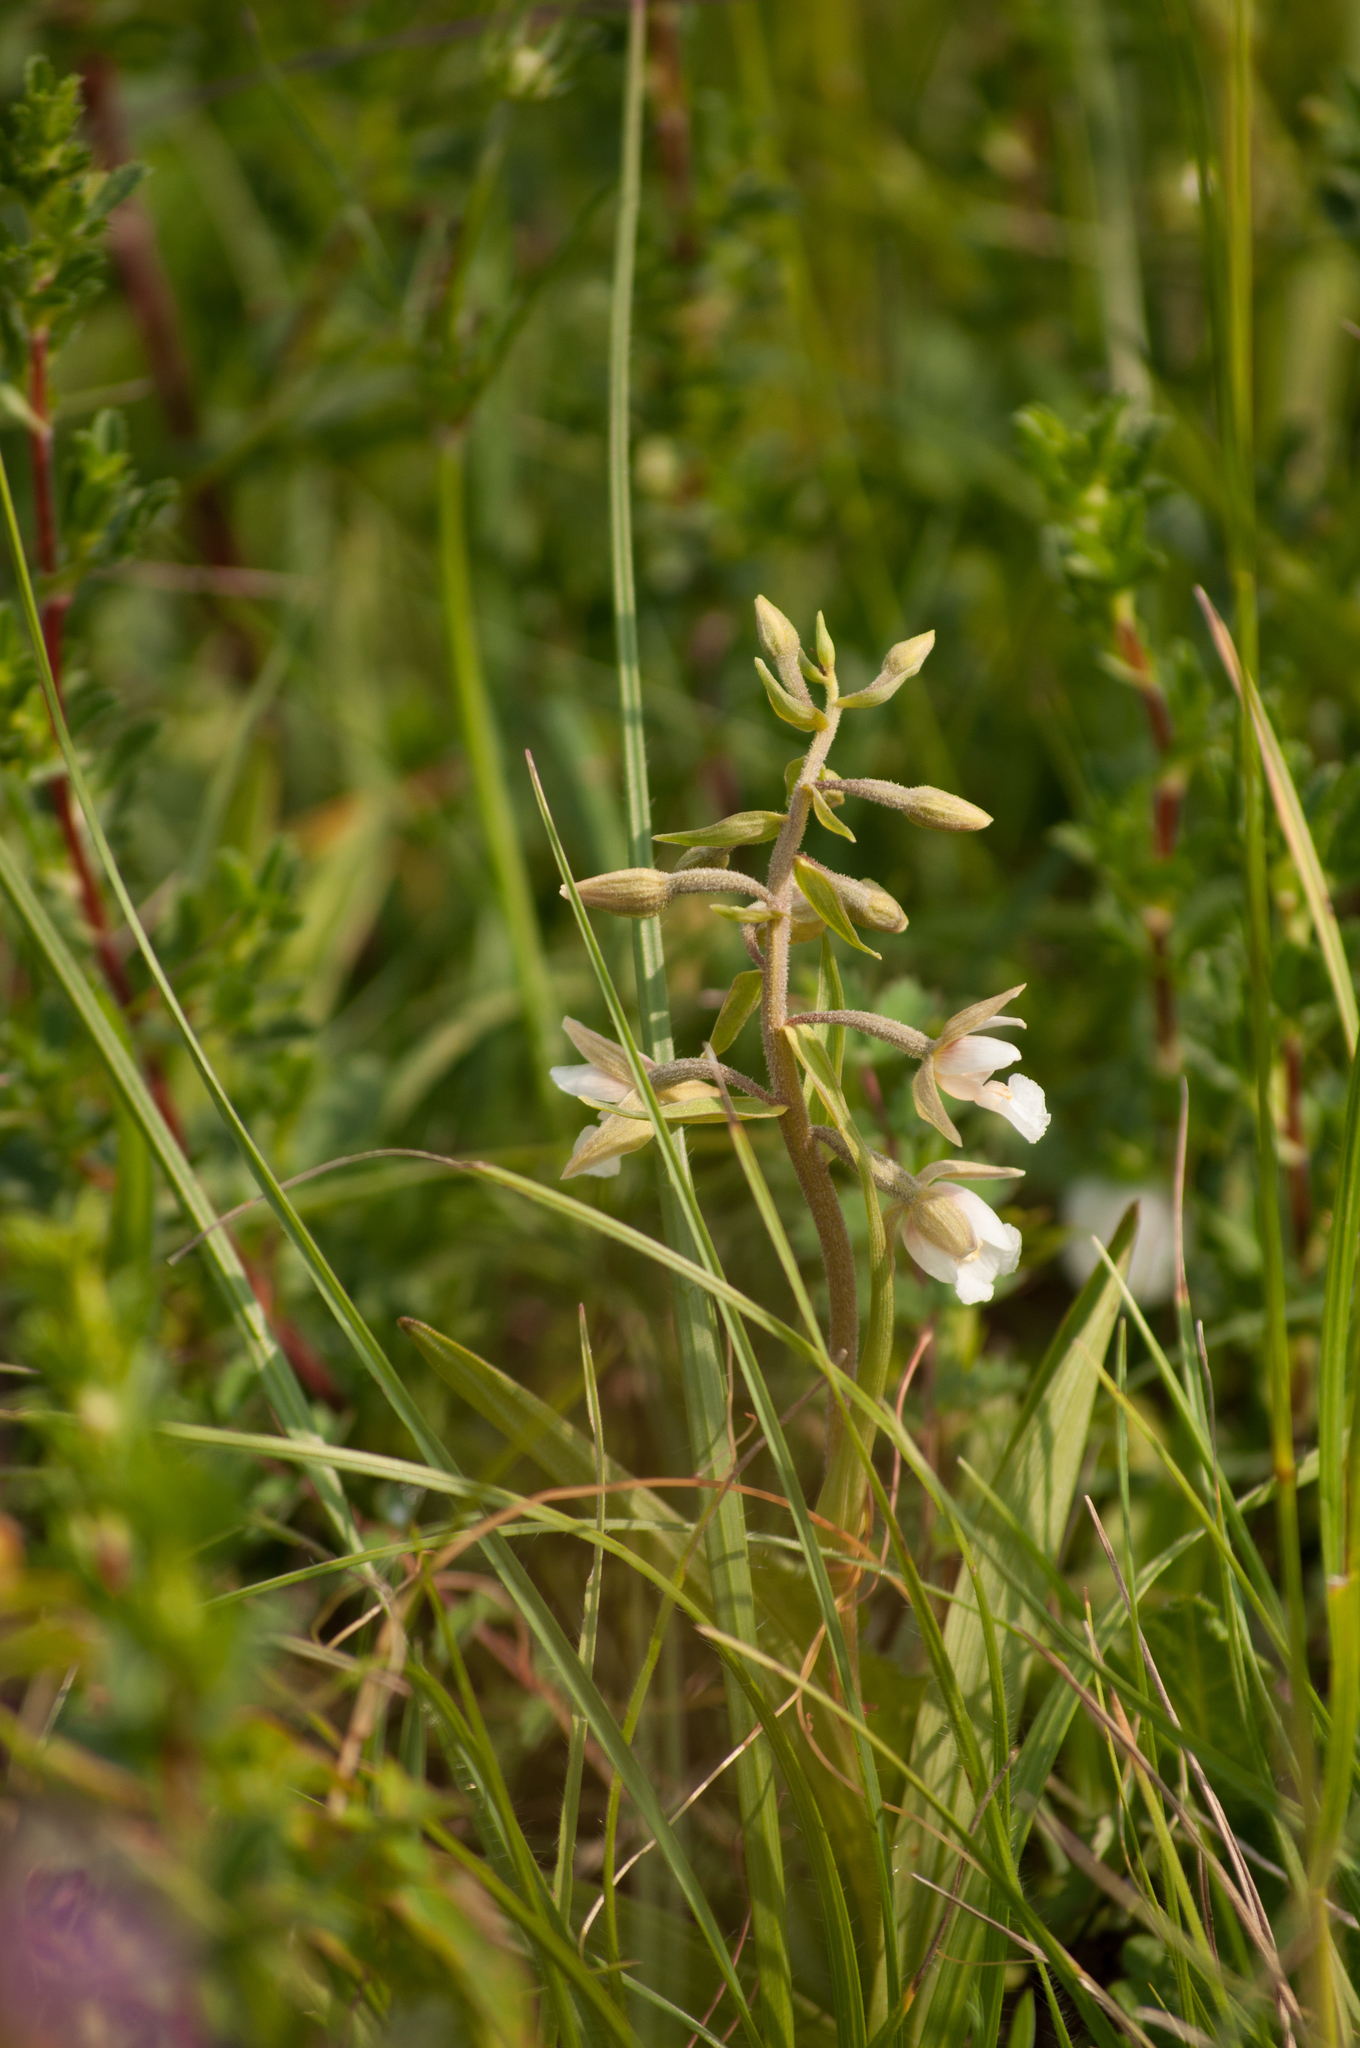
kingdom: Plantae
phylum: Tracheophyta
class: Liliopsida
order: Asparagales
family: Orchidaceae
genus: Epipactis
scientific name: Epipactis palustris
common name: Marsh helleborine
